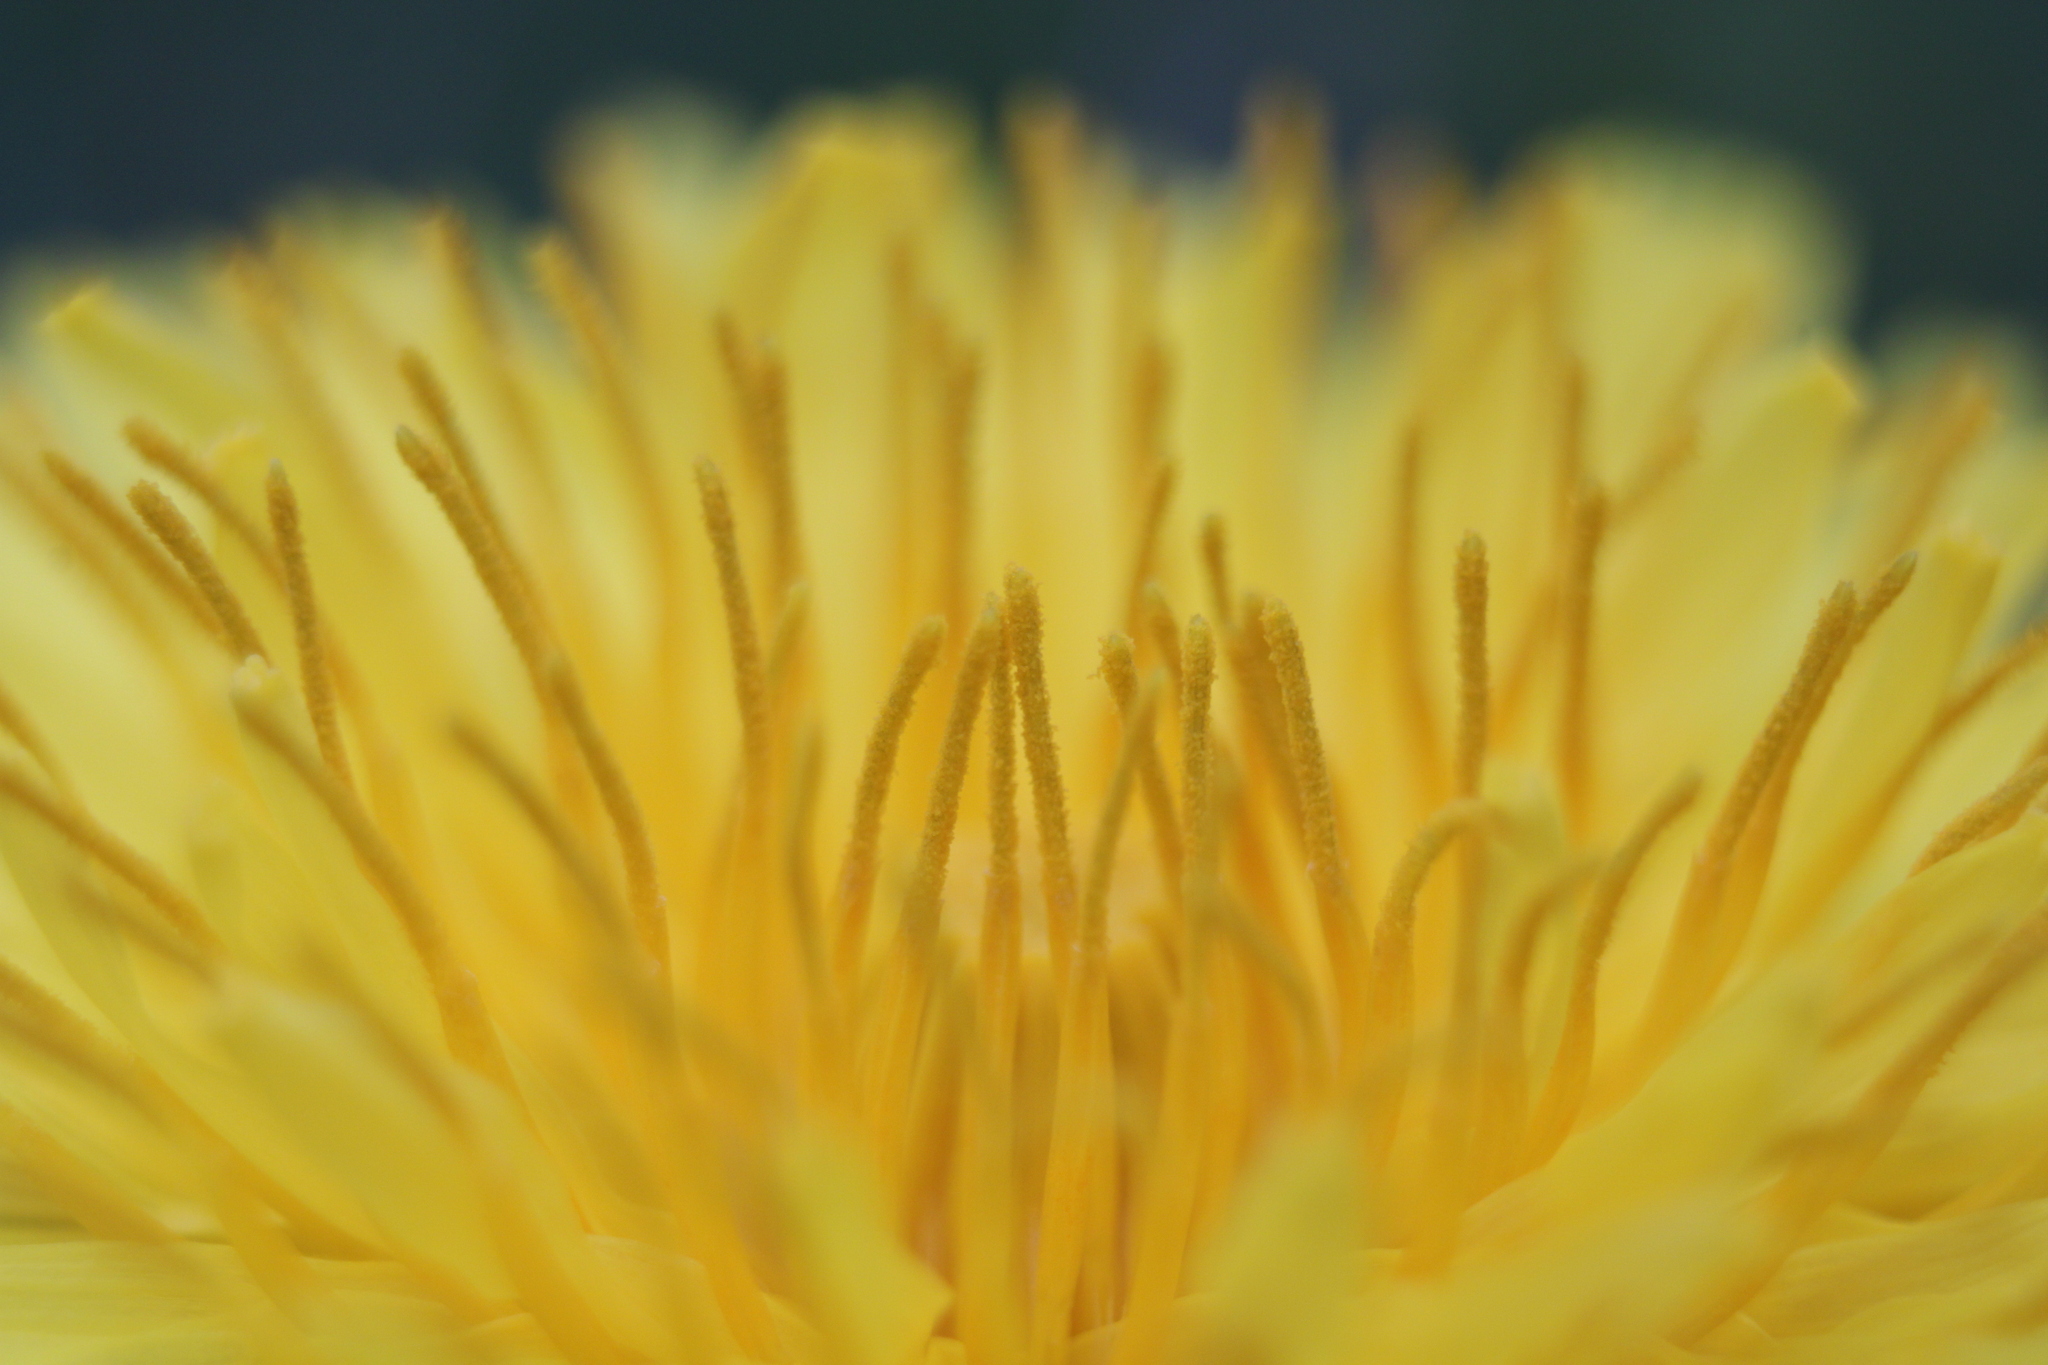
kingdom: Plantae
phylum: Tracheophyta
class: Magnoliopsida
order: Asterales
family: Asteraceae
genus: Taraxacum
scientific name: Taraxacum officinale
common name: Common dandelion
